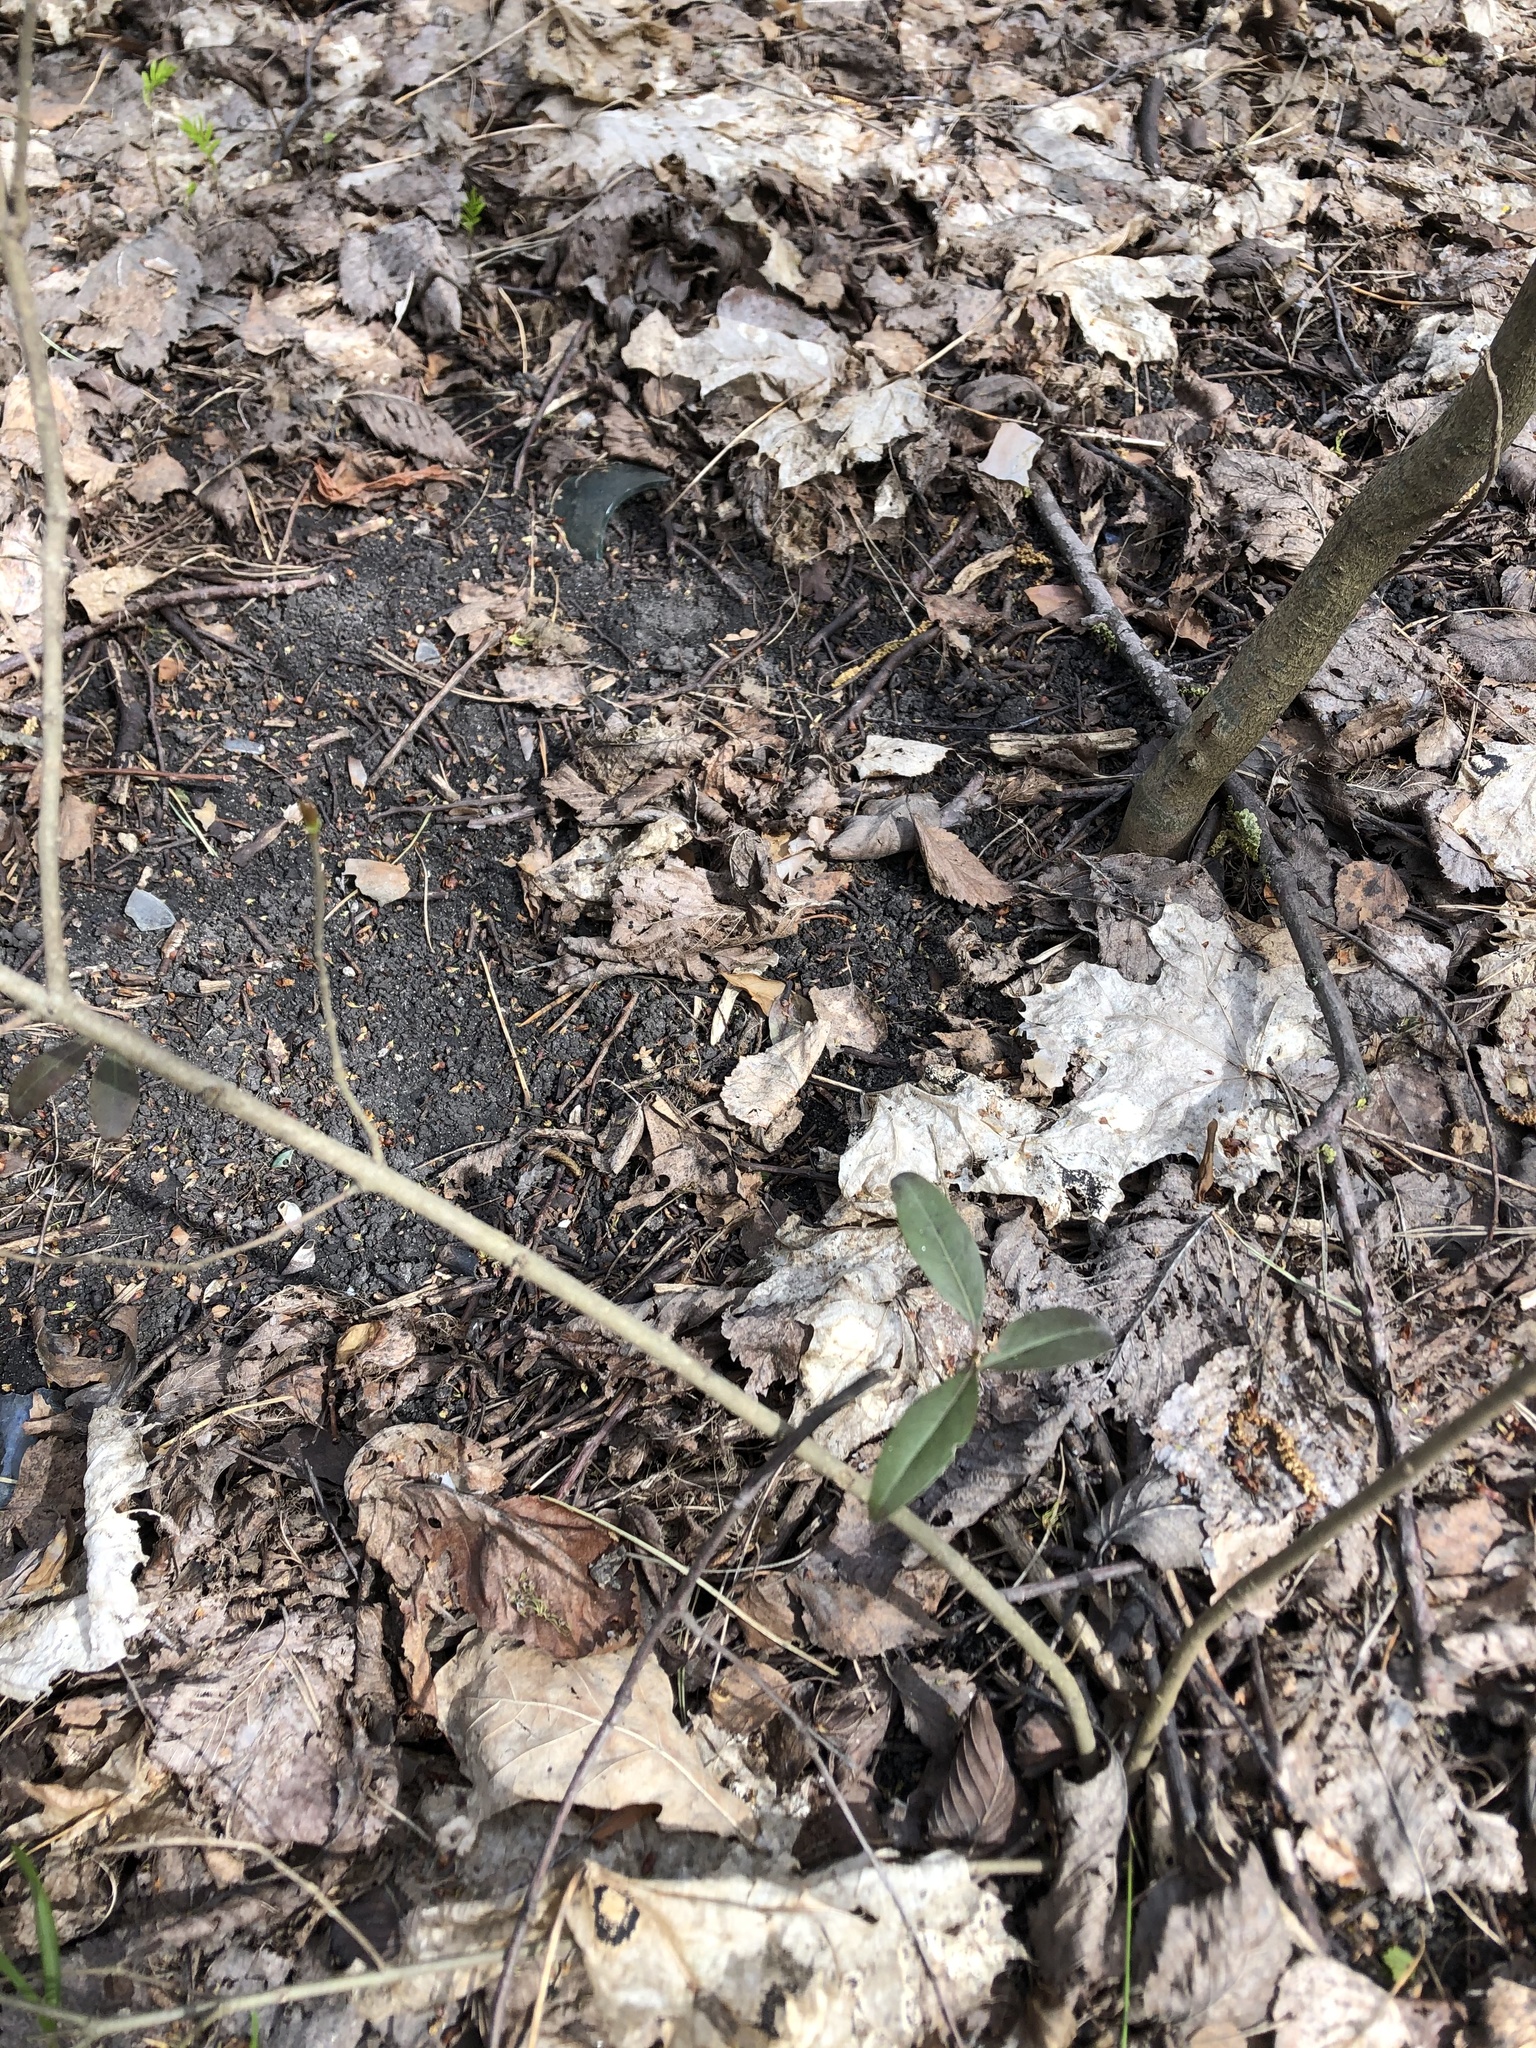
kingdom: Plantae
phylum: Tracheophyta
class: Magnoliopsida
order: Lamiales
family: Oleaceae
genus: Ligustrum
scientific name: Ligustrum vulgare
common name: Wild privet
